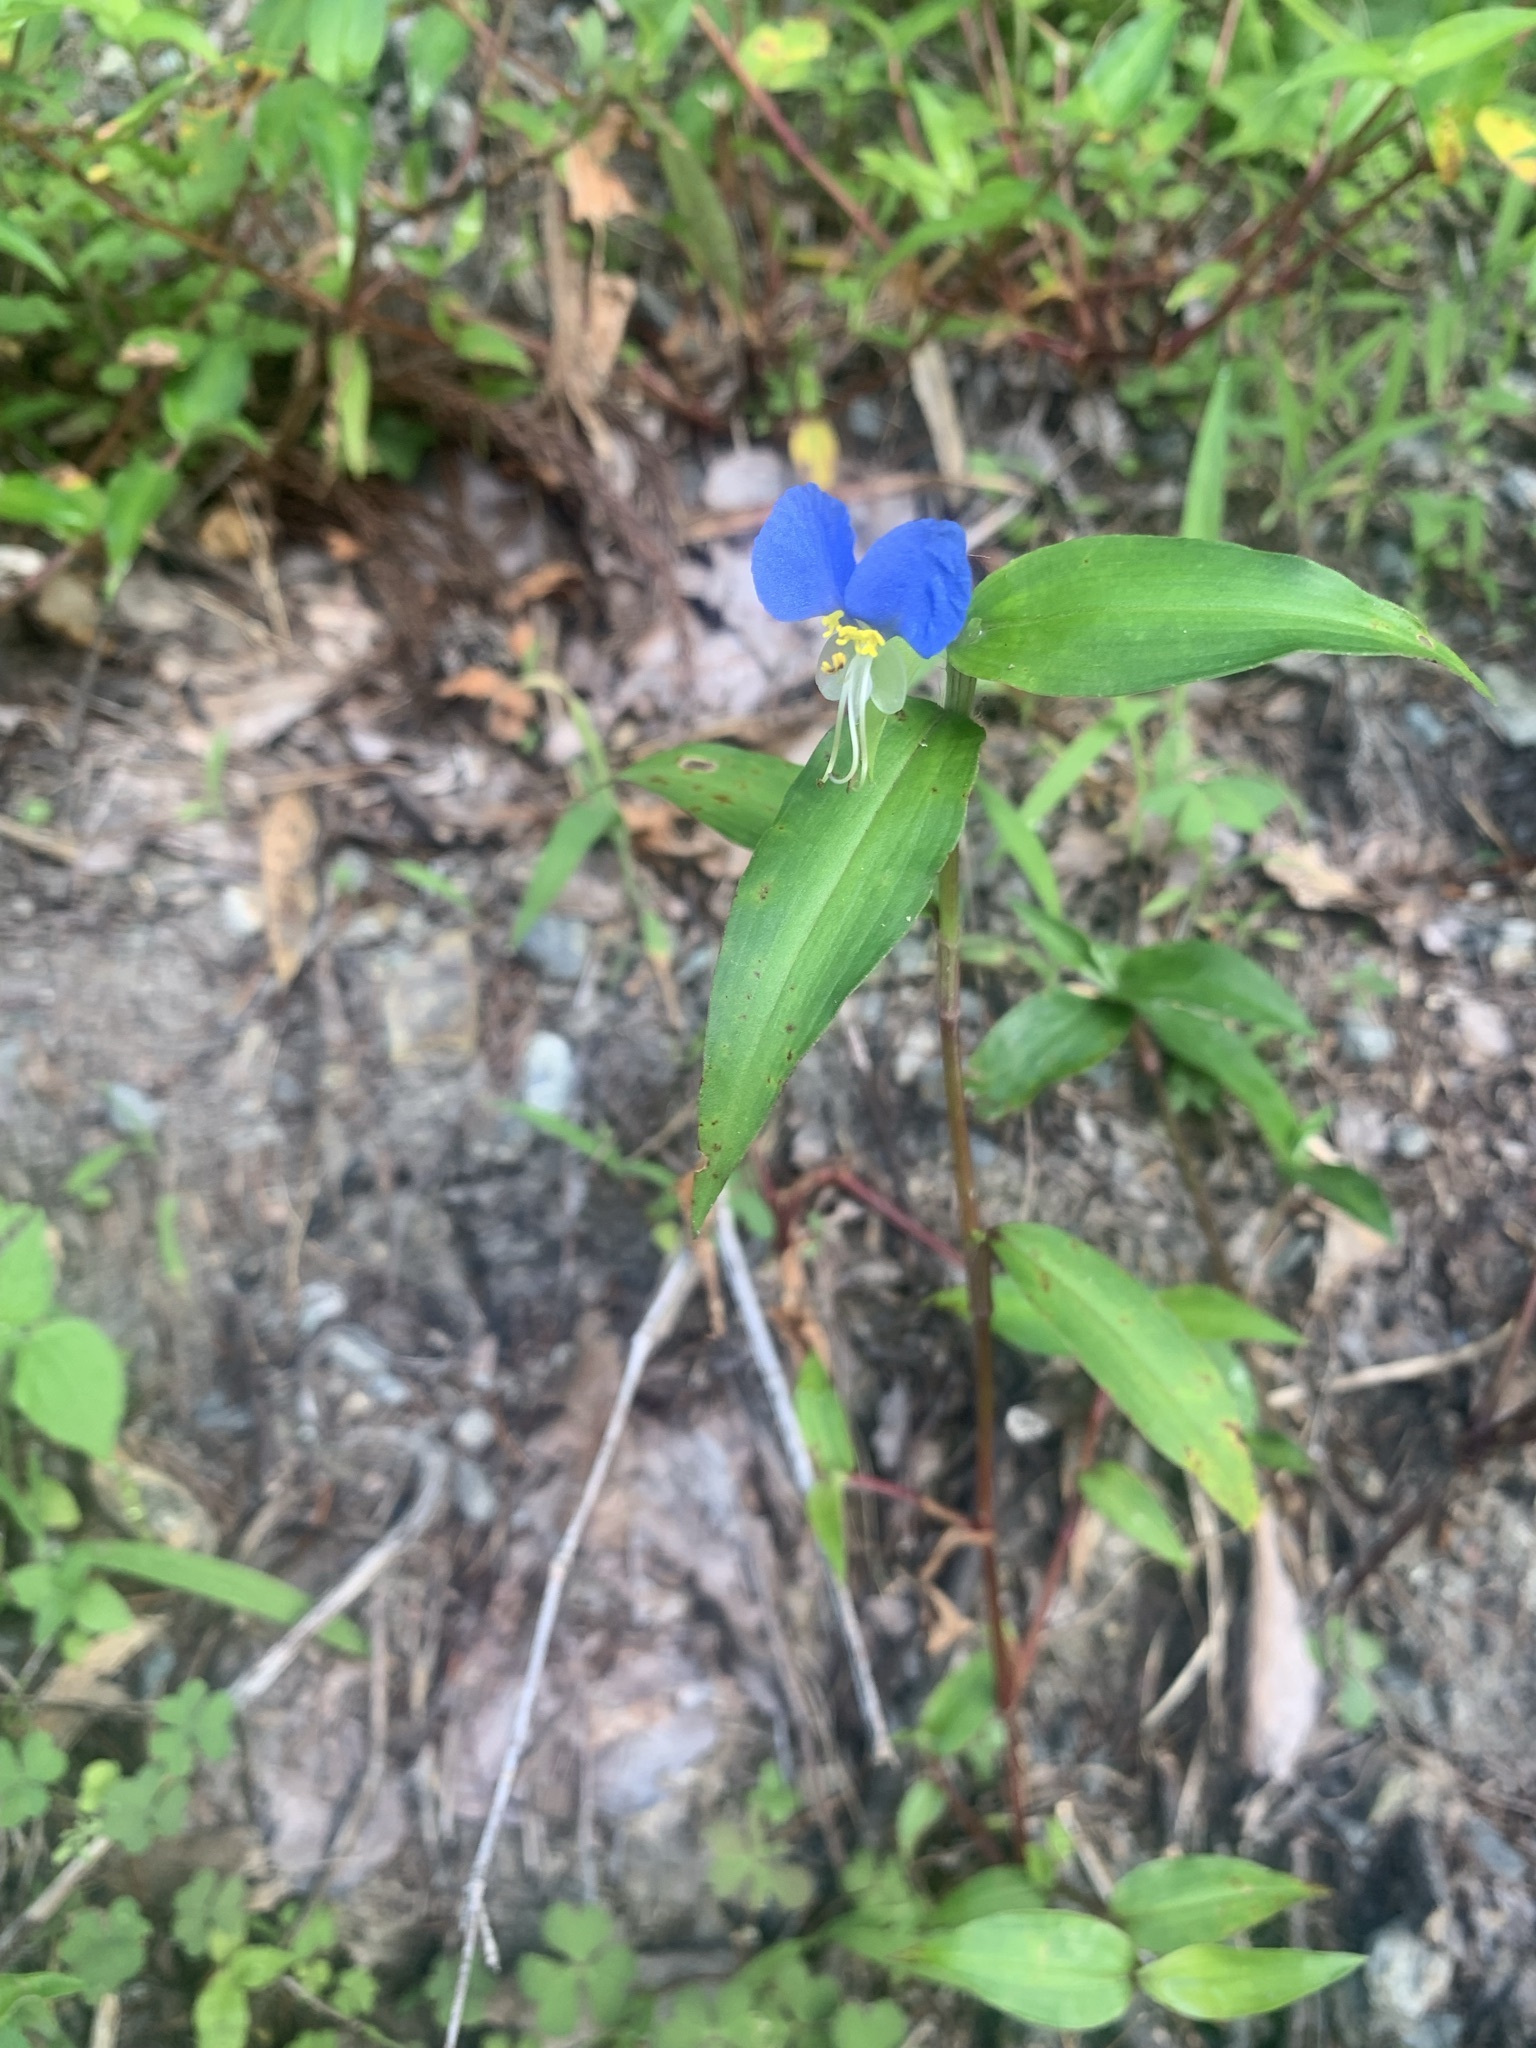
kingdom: Plantae
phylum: Tracheophyta
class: Liliopsida
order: Commelinales
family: Commelinaceae
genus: Commelina
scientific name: Commelina communis
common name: Asiatic dayflower
